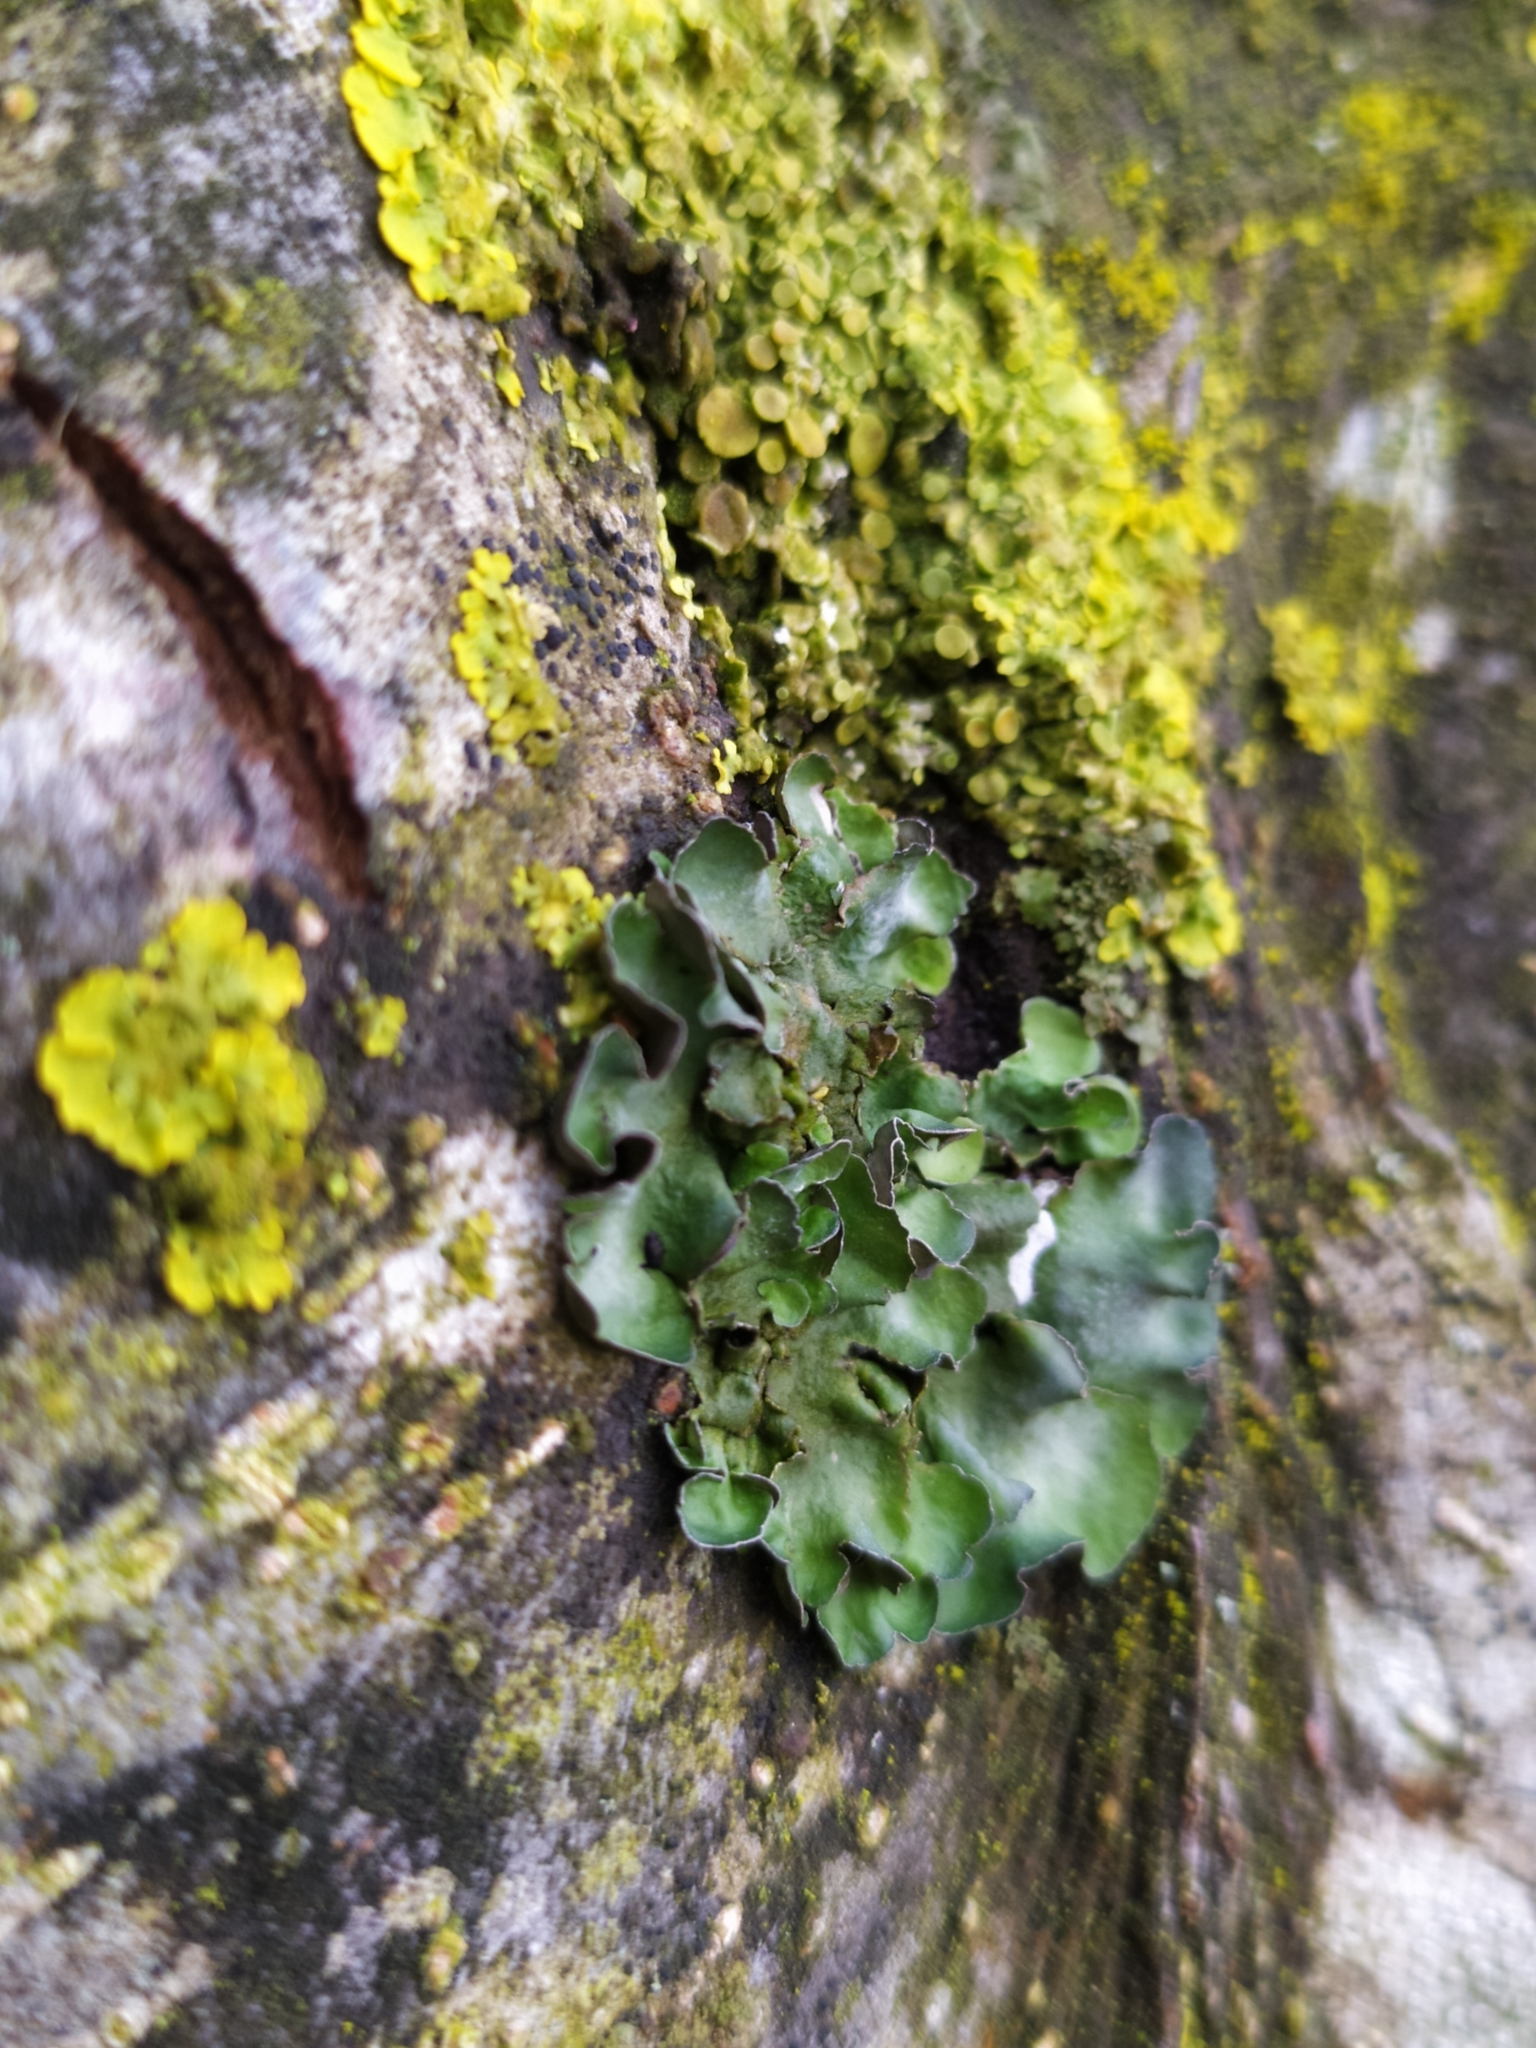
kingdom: Fungi
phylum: Ascomycota
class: Lecanoromycetes
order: Lecanorales
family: Parmeliaceae
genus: Pleurosticta
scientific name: Pleurosticta acetabulum
